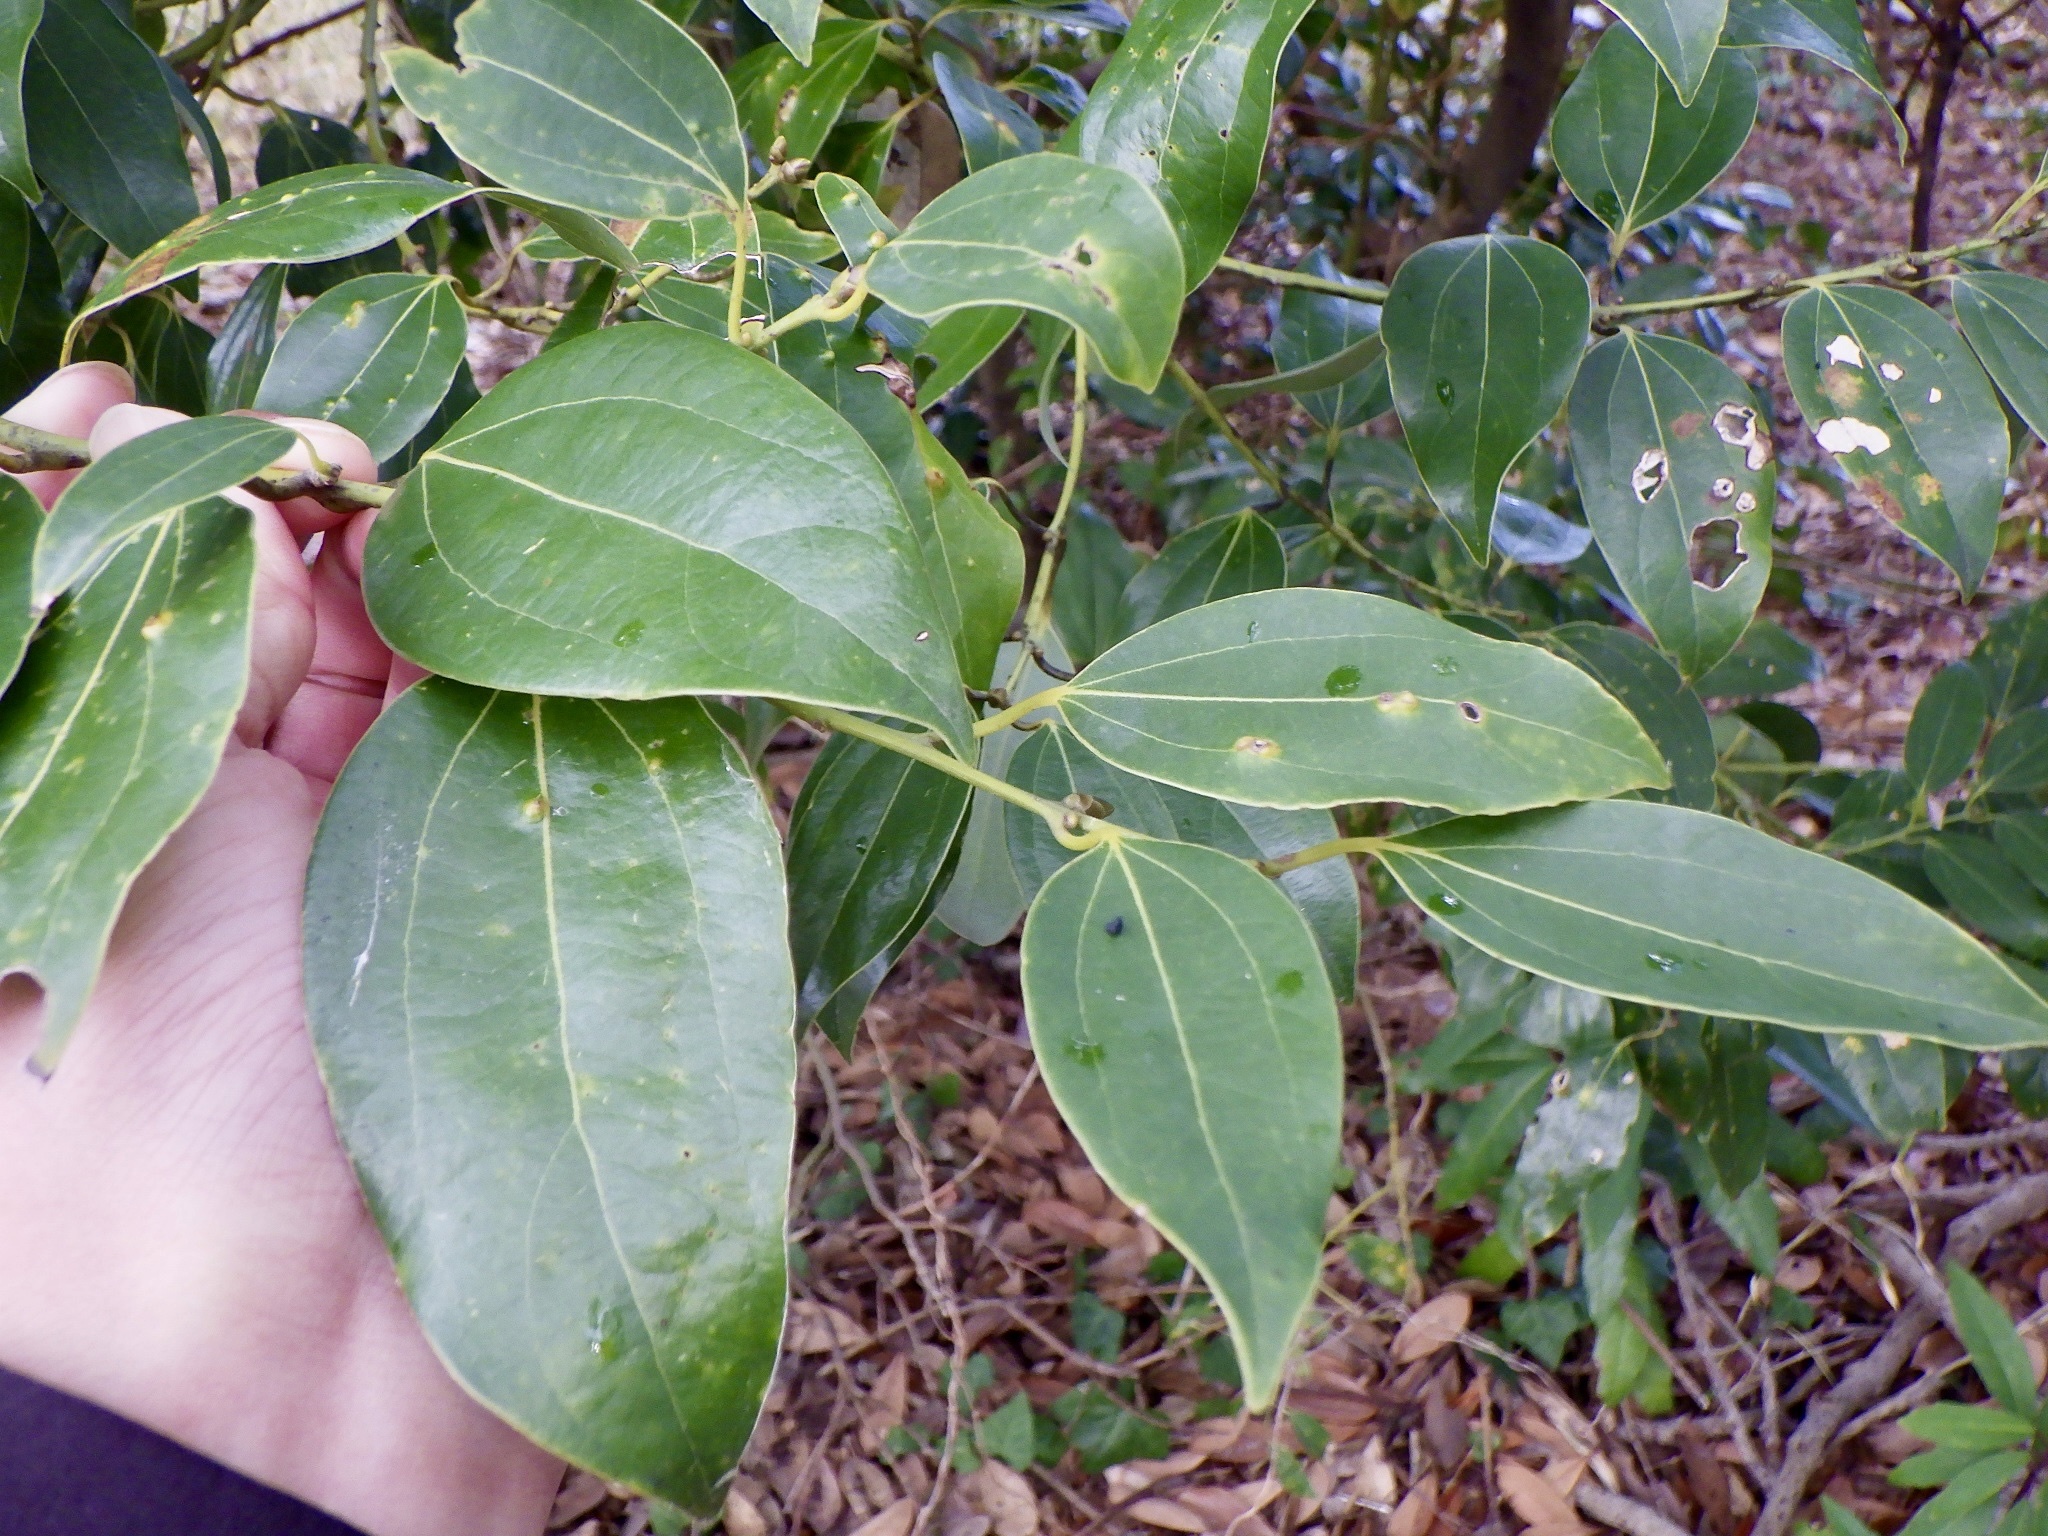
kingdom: Plantae
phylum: Tracheophyta
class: Magnoliopsida
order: Laurales
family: Lauraceae
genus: Cinnamomum
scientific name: Cinnamomum chekiangense
